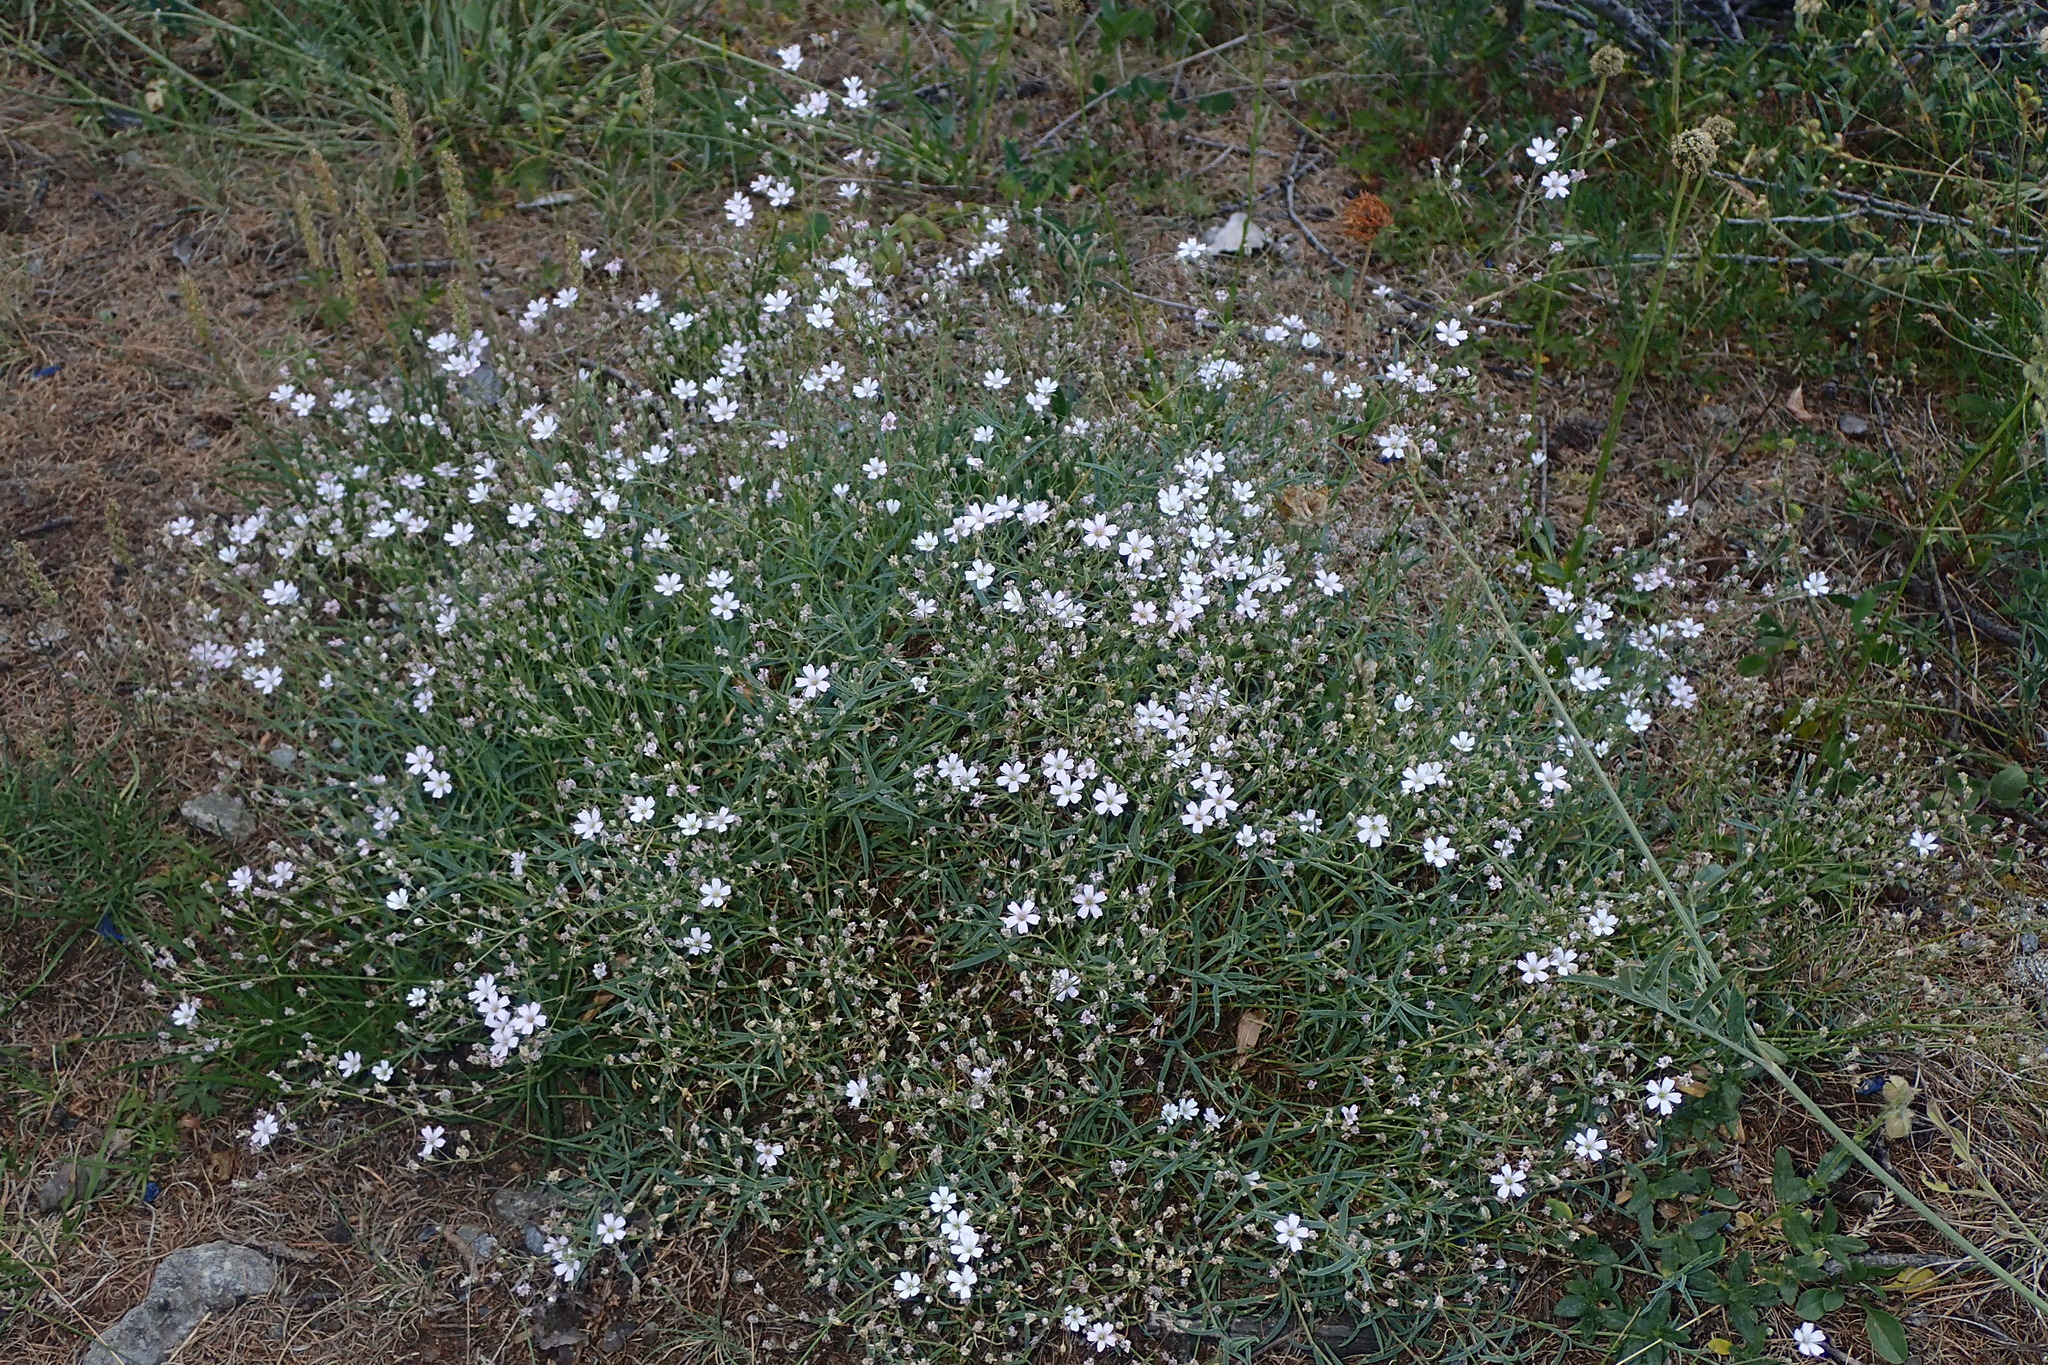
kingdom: Plantae
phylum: Tracheophyta
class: Magnoliopsida
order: Caryophyllales
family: Caryophyllaceae
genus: Gypsophila
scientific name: Gypsophila repens
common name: Creeping baby's-breath
